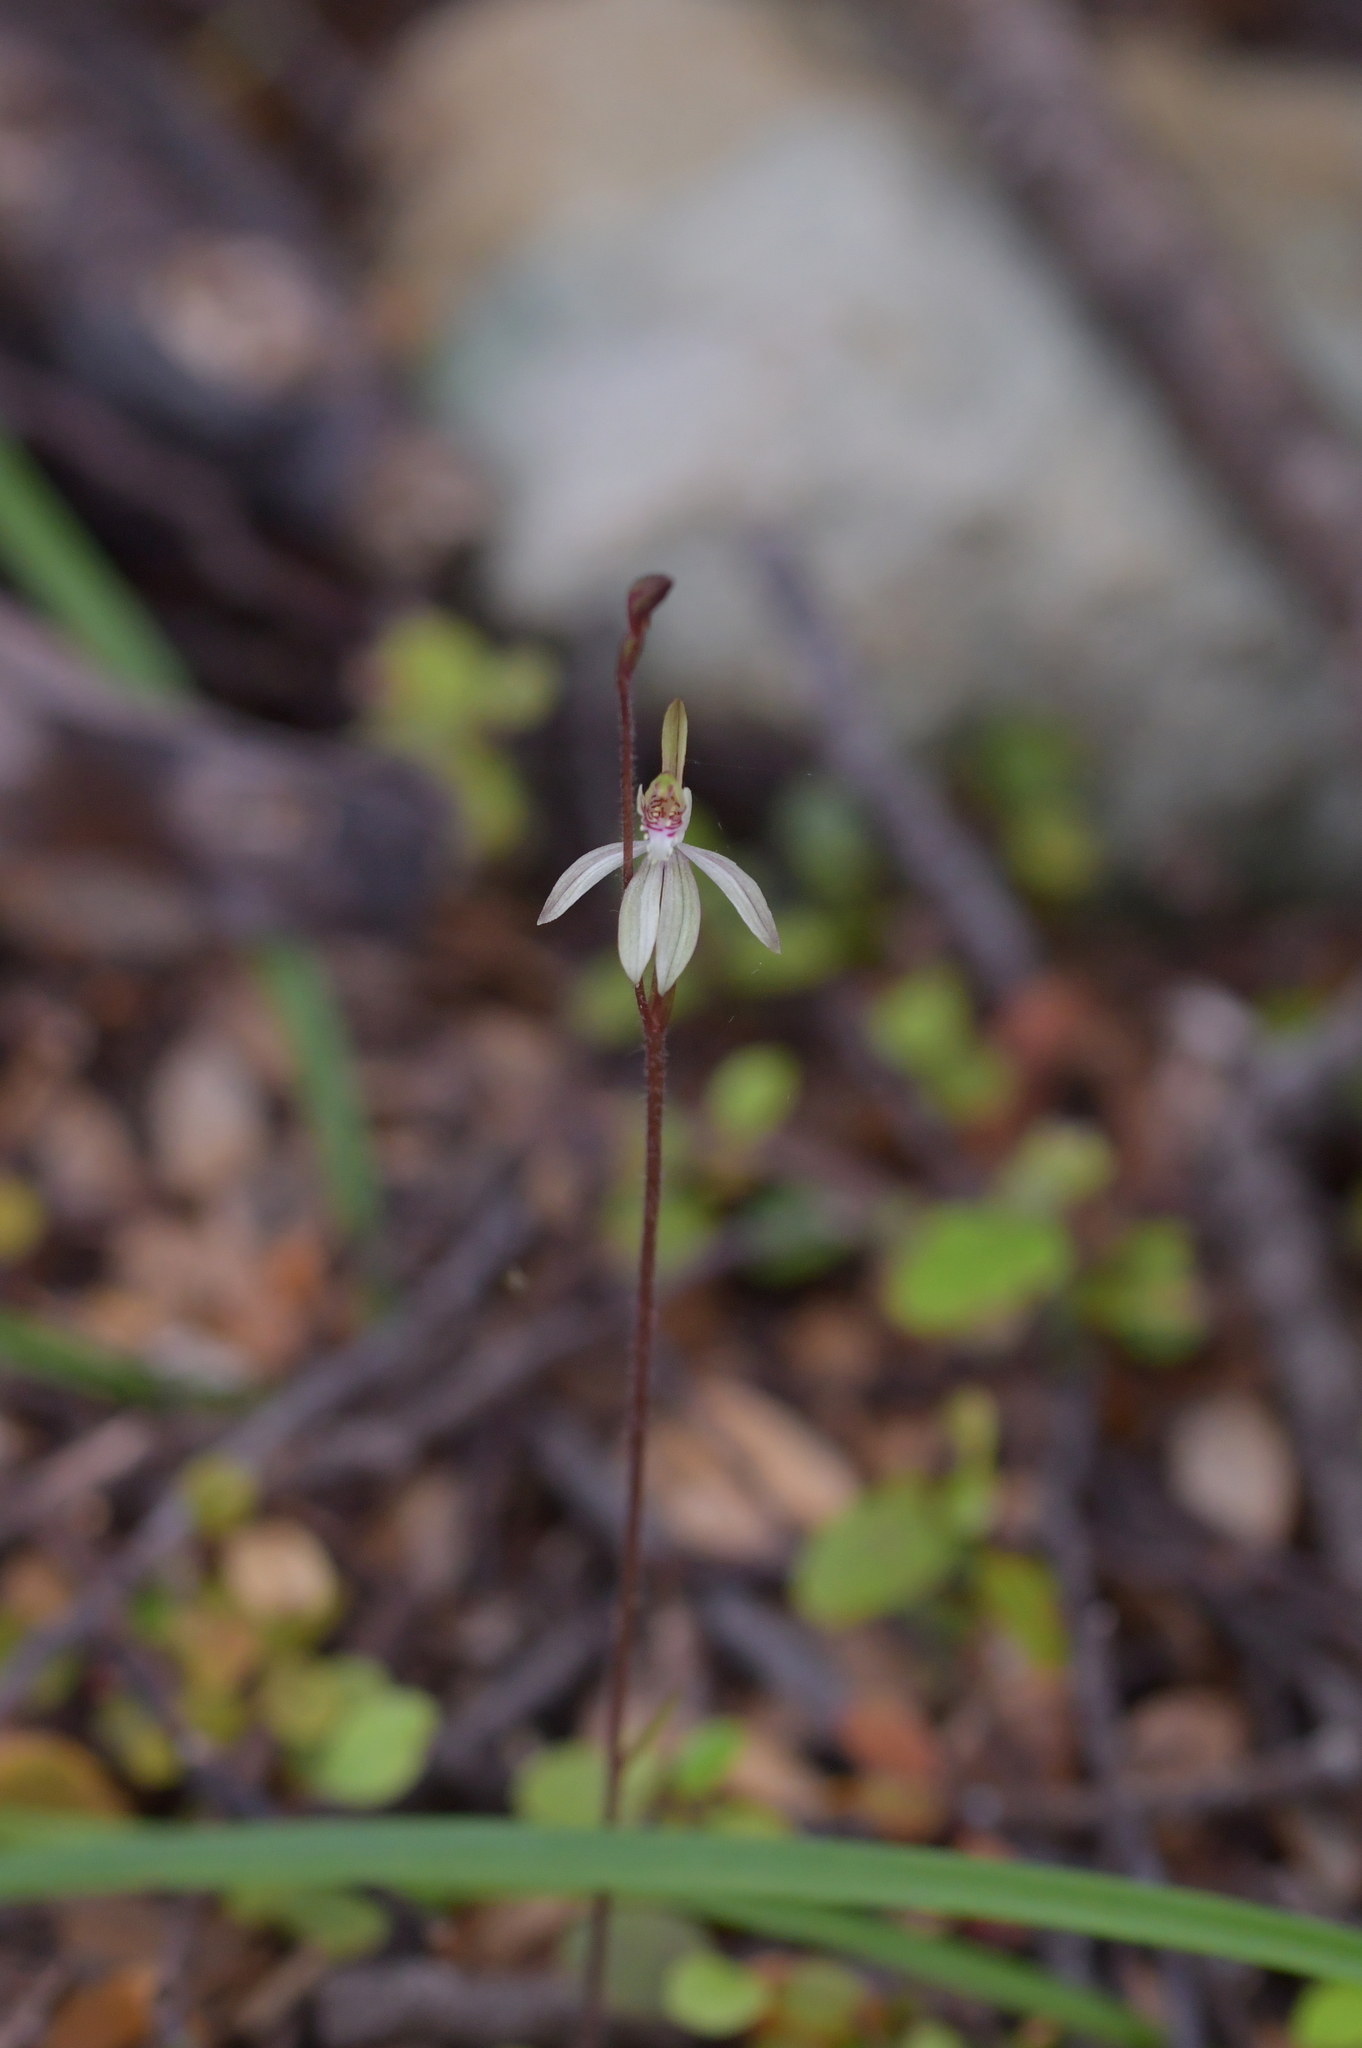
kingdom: Plantae
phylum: Tracheophyta
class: Liliopsida
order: Asparagales
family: Orchidaceae
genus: Caladenia
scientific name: Caladenia chlorostyla
